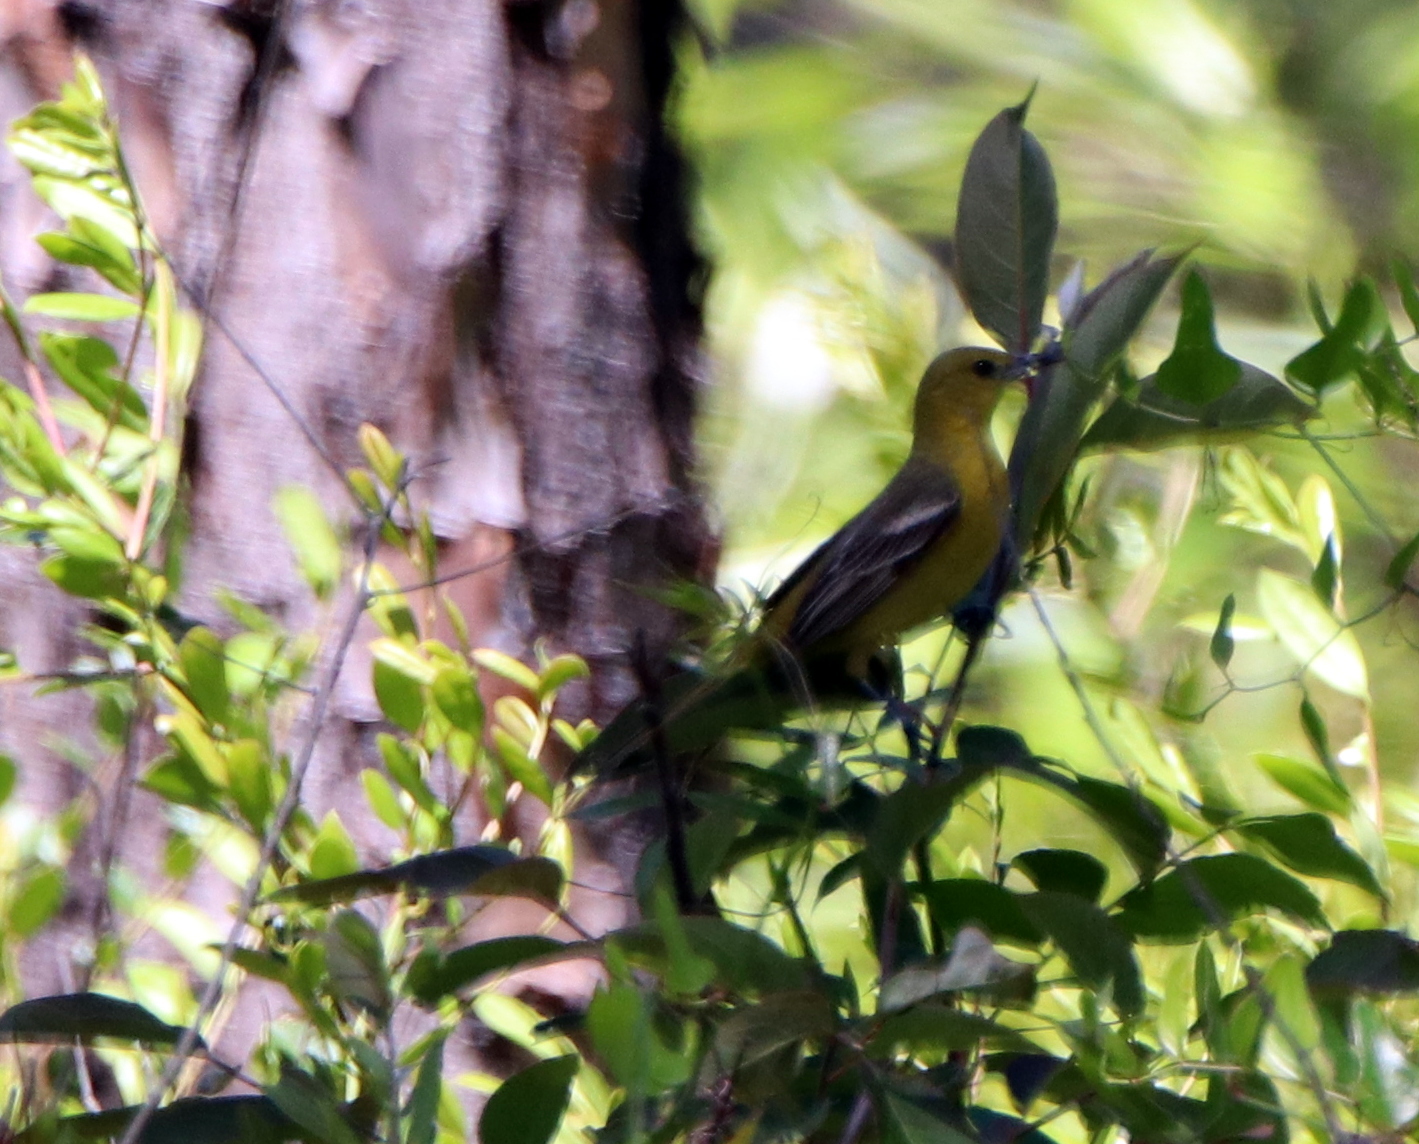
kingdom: Animalia
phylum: Chordata
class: Aves
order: Passeriformes
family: Icteridae
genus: Icterus
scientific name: Icterus spurius
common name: Orchard oriole
